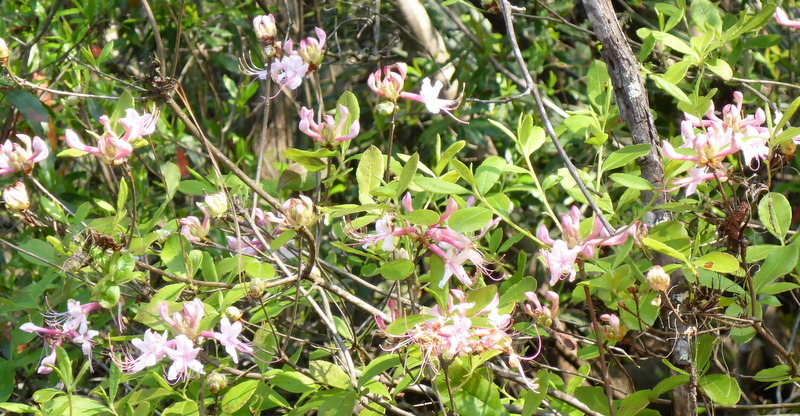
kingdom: Plantae
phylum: Tracheophyta
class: Magnoliopsida
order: Ericales
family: Ericaceae
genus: Rhododendron
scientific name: Rhododendron canescens
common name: Mountain azalea
